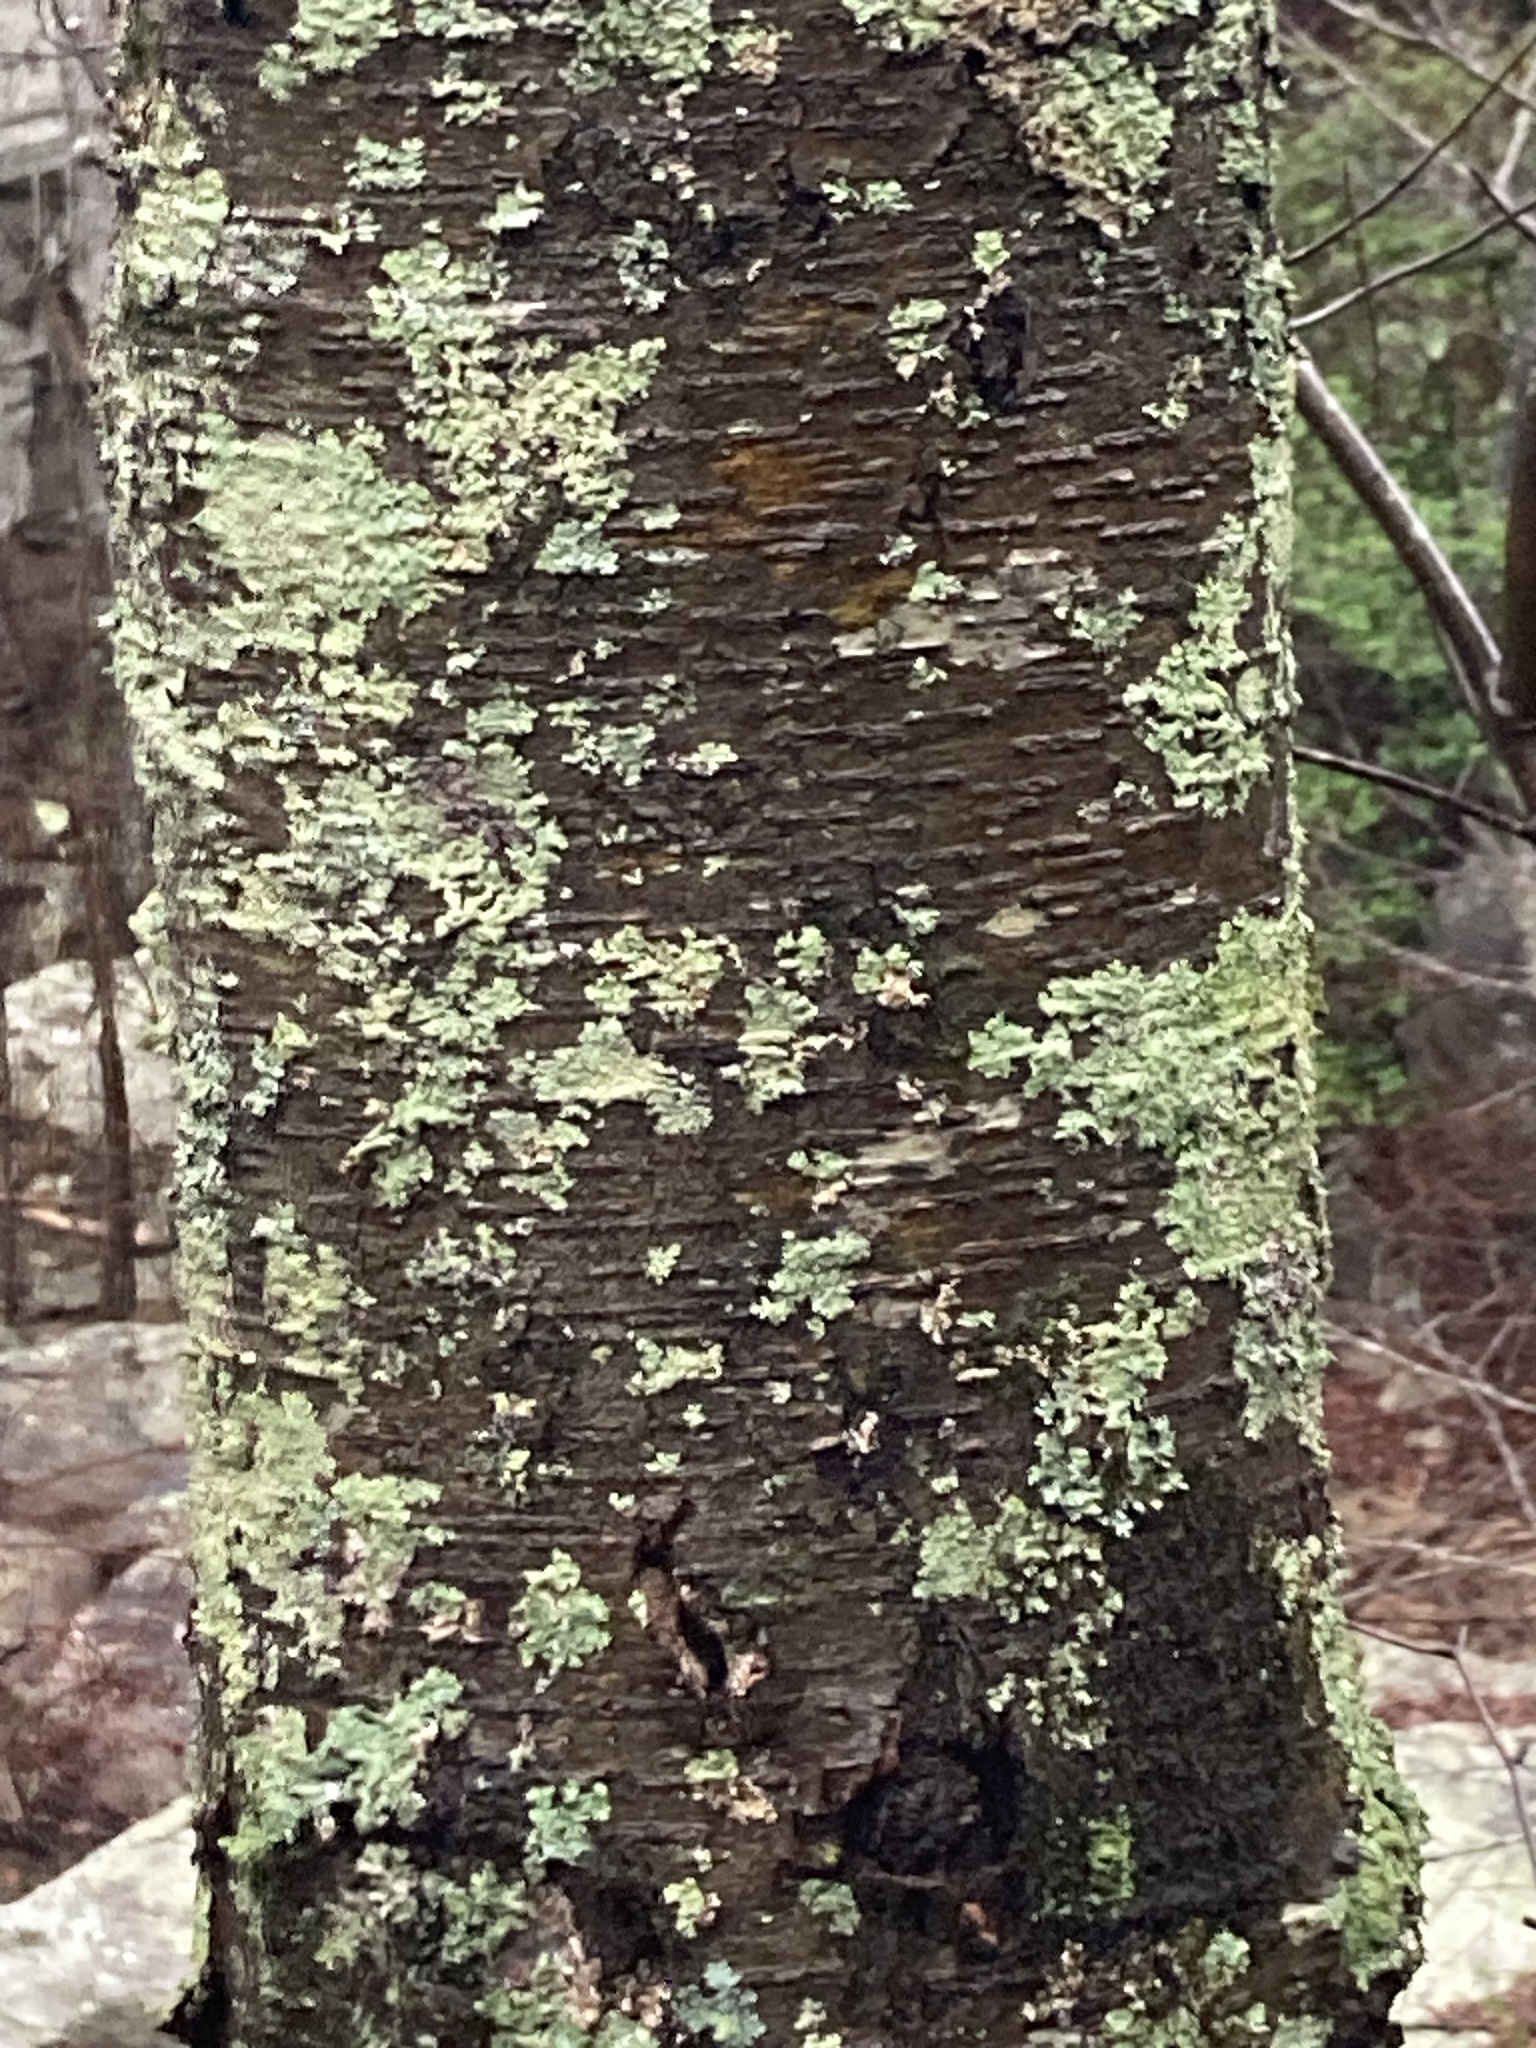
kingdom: Plantae
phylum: Tracheophyta
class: Magnoliopsida
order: Fagales
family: Betulaceae
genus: Betula
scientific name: Betula lenta
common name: Black birch
